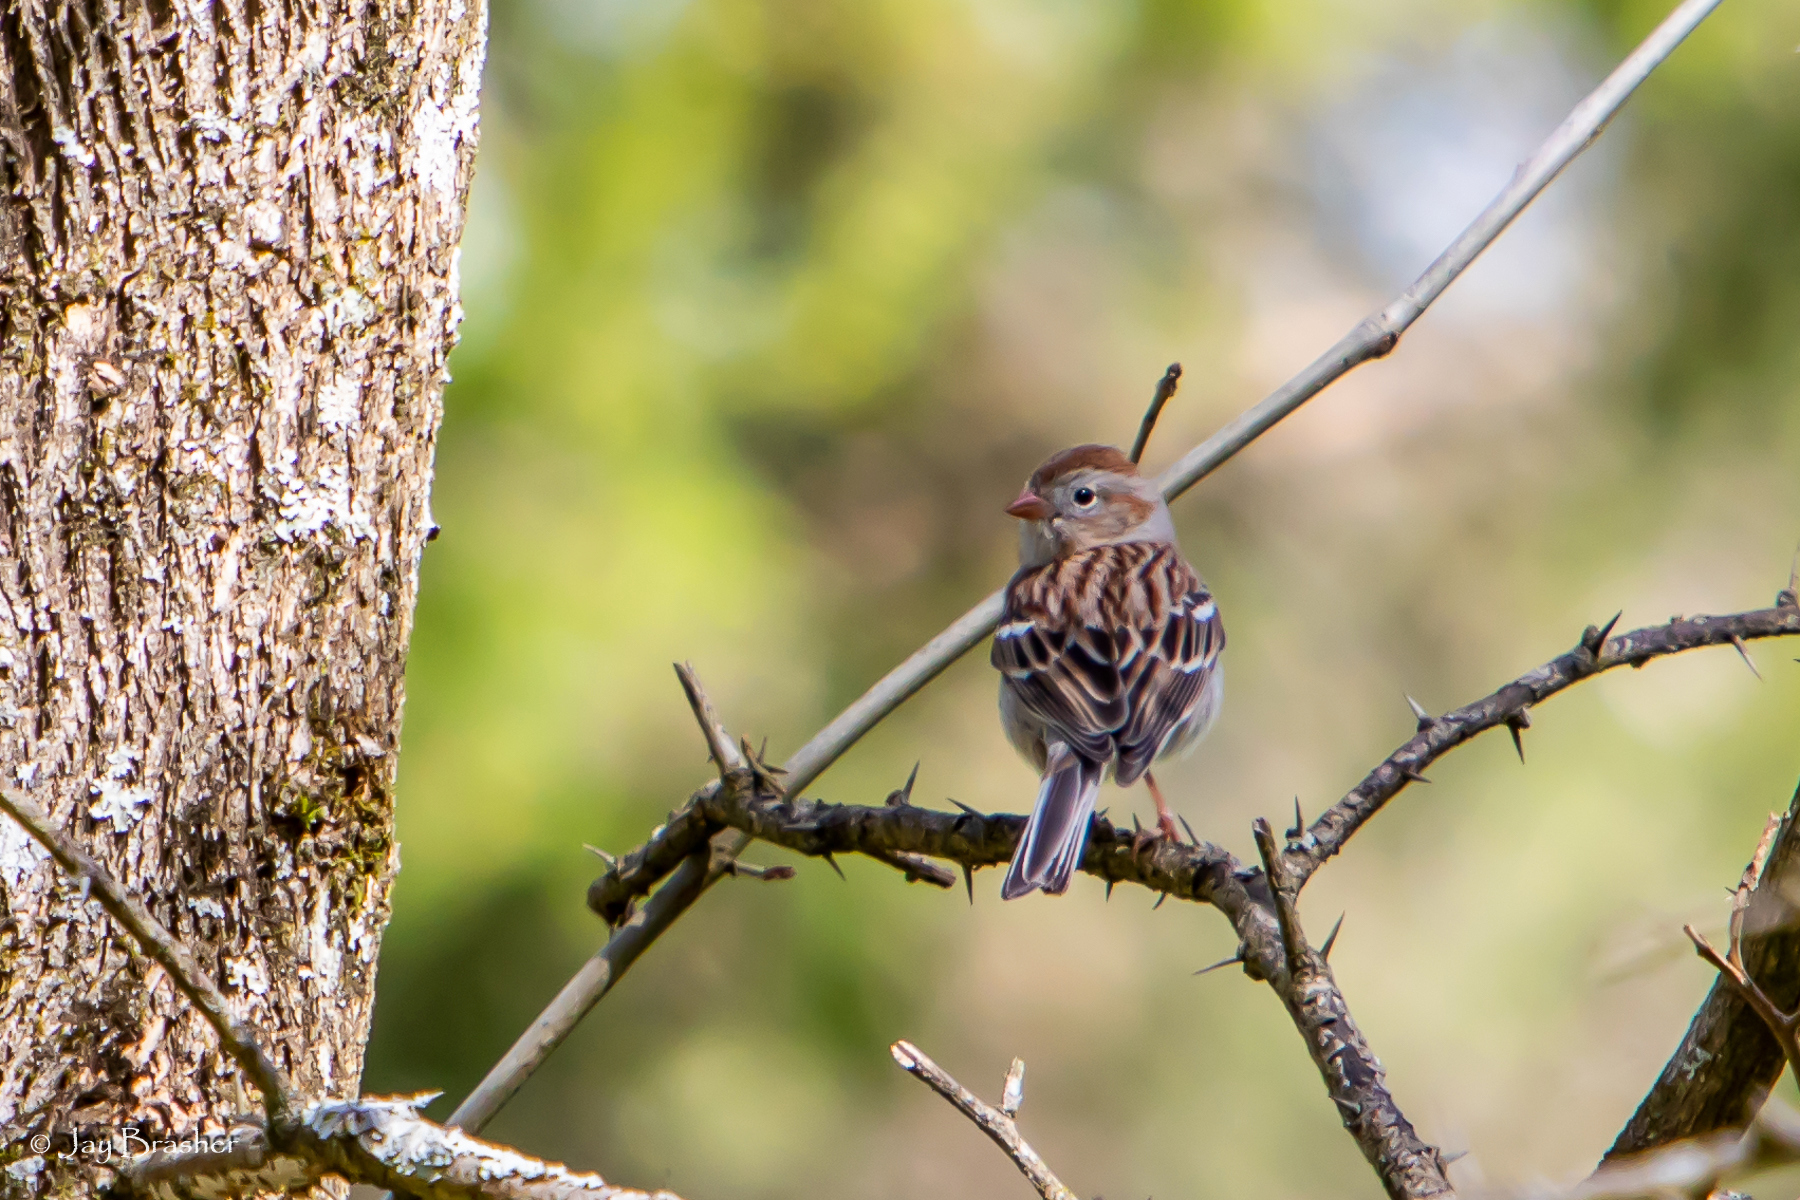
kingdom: Animalia
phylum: Chordata
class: Aves
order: Passeriformes
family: Passerellidae
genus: Spizella
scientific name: Spizella pusilla
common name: Field sparrow
